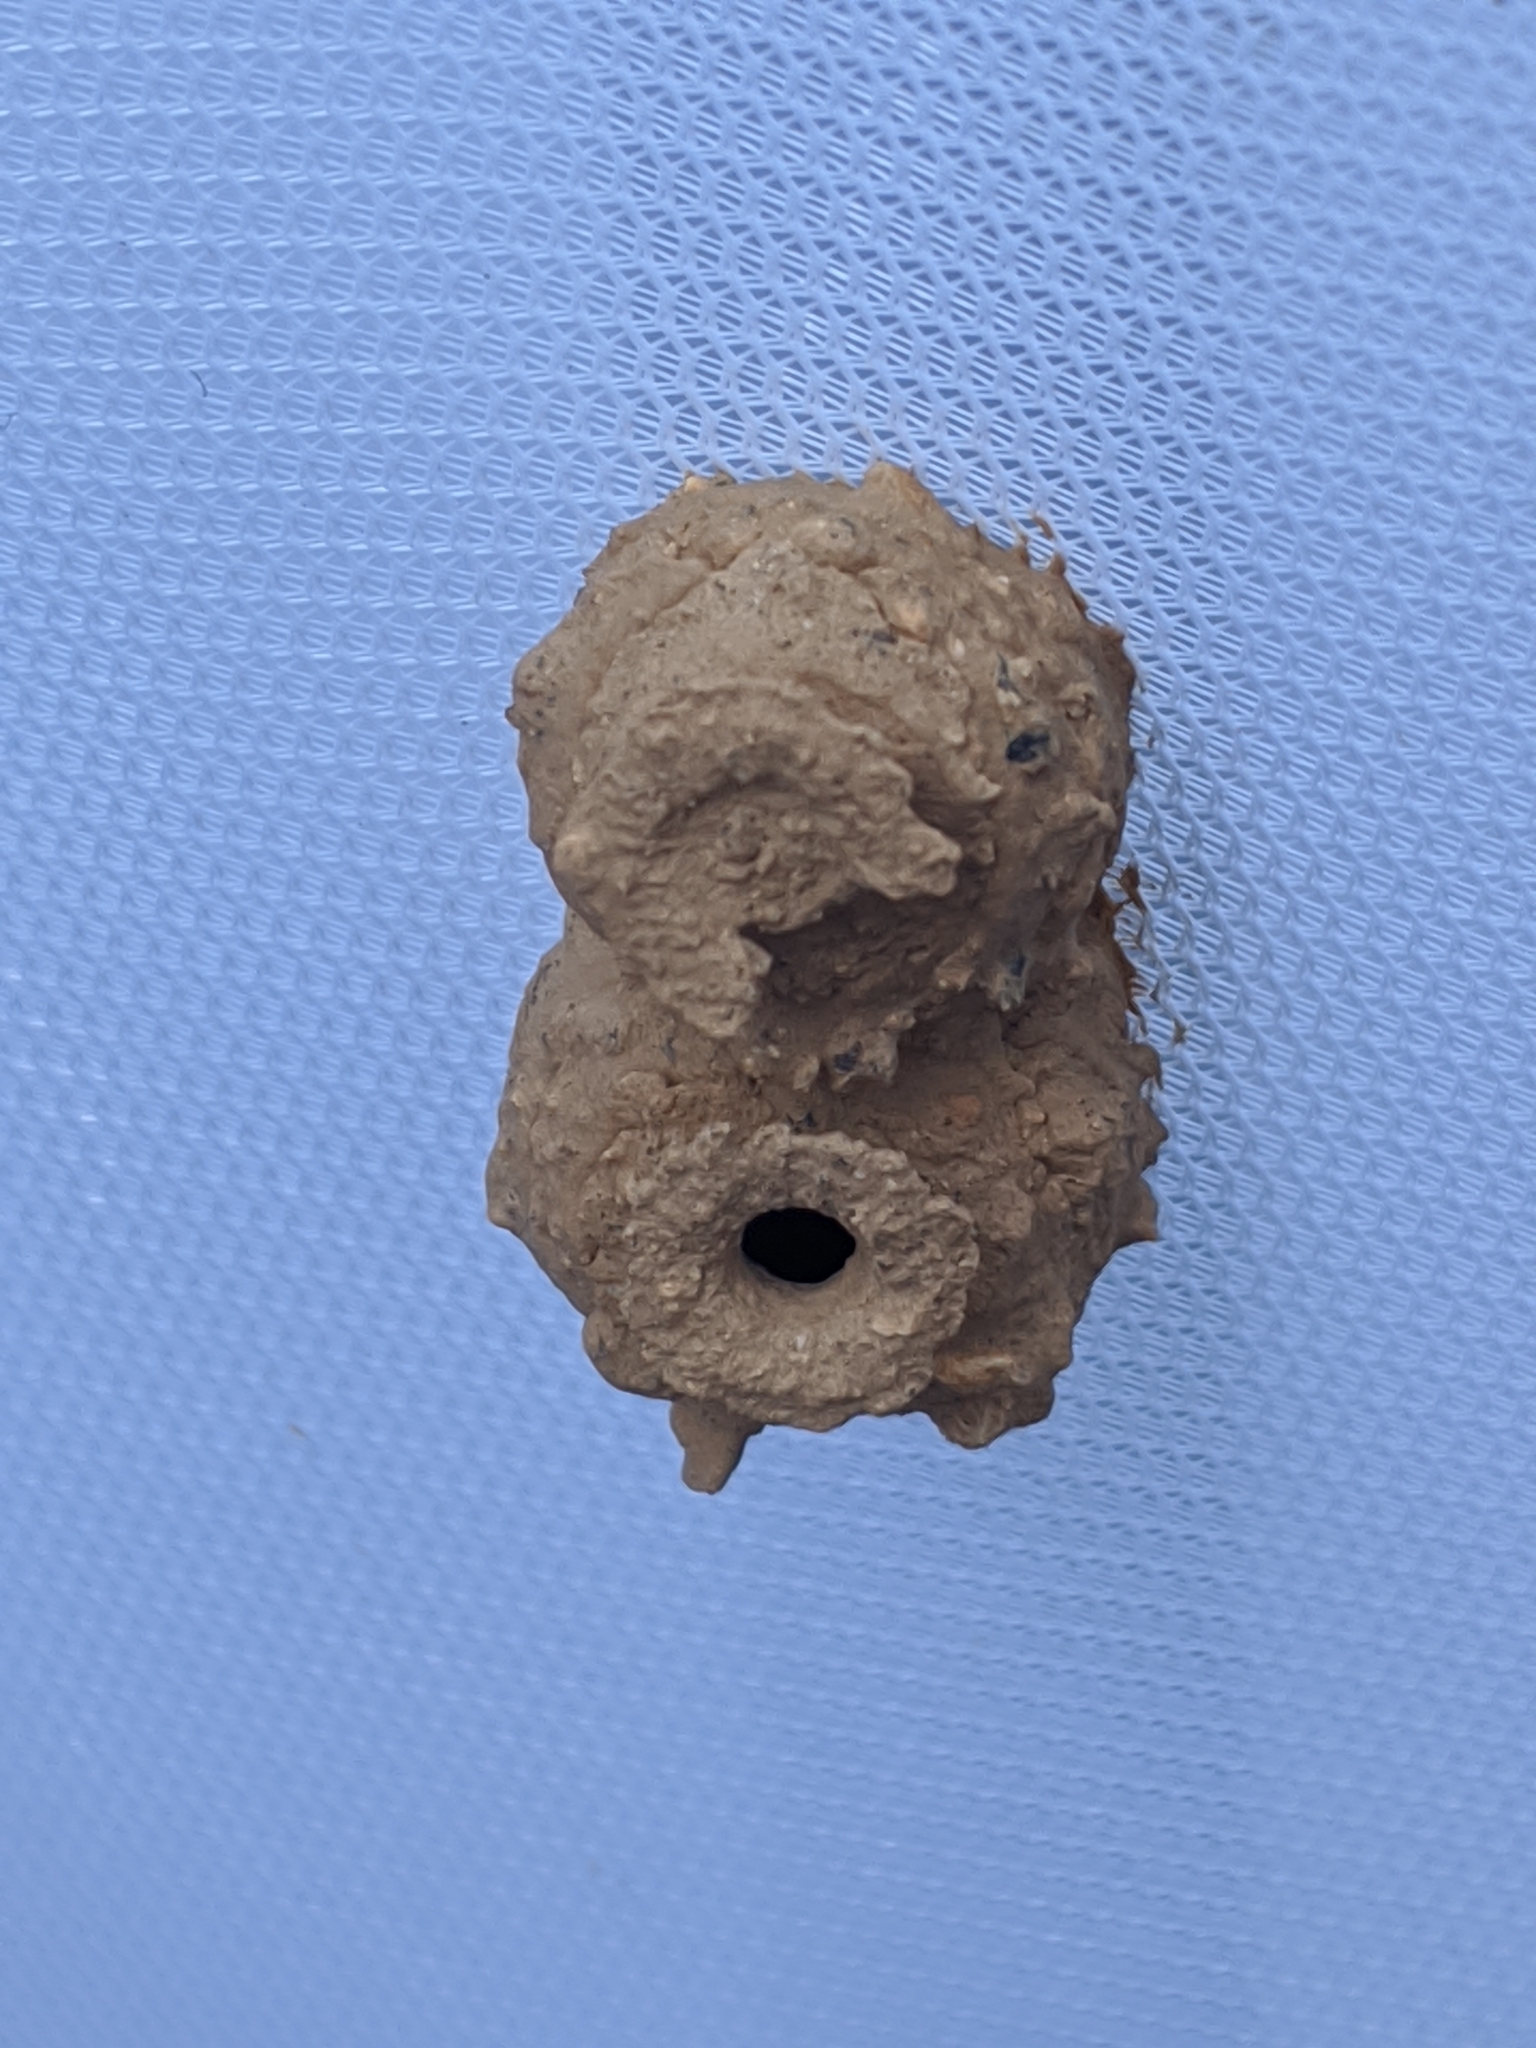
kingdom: Animalia
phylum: Arthropoda
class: Insecta
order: Hymenoptera
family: Vespidae
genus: Eumenes
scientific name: Eumenes
